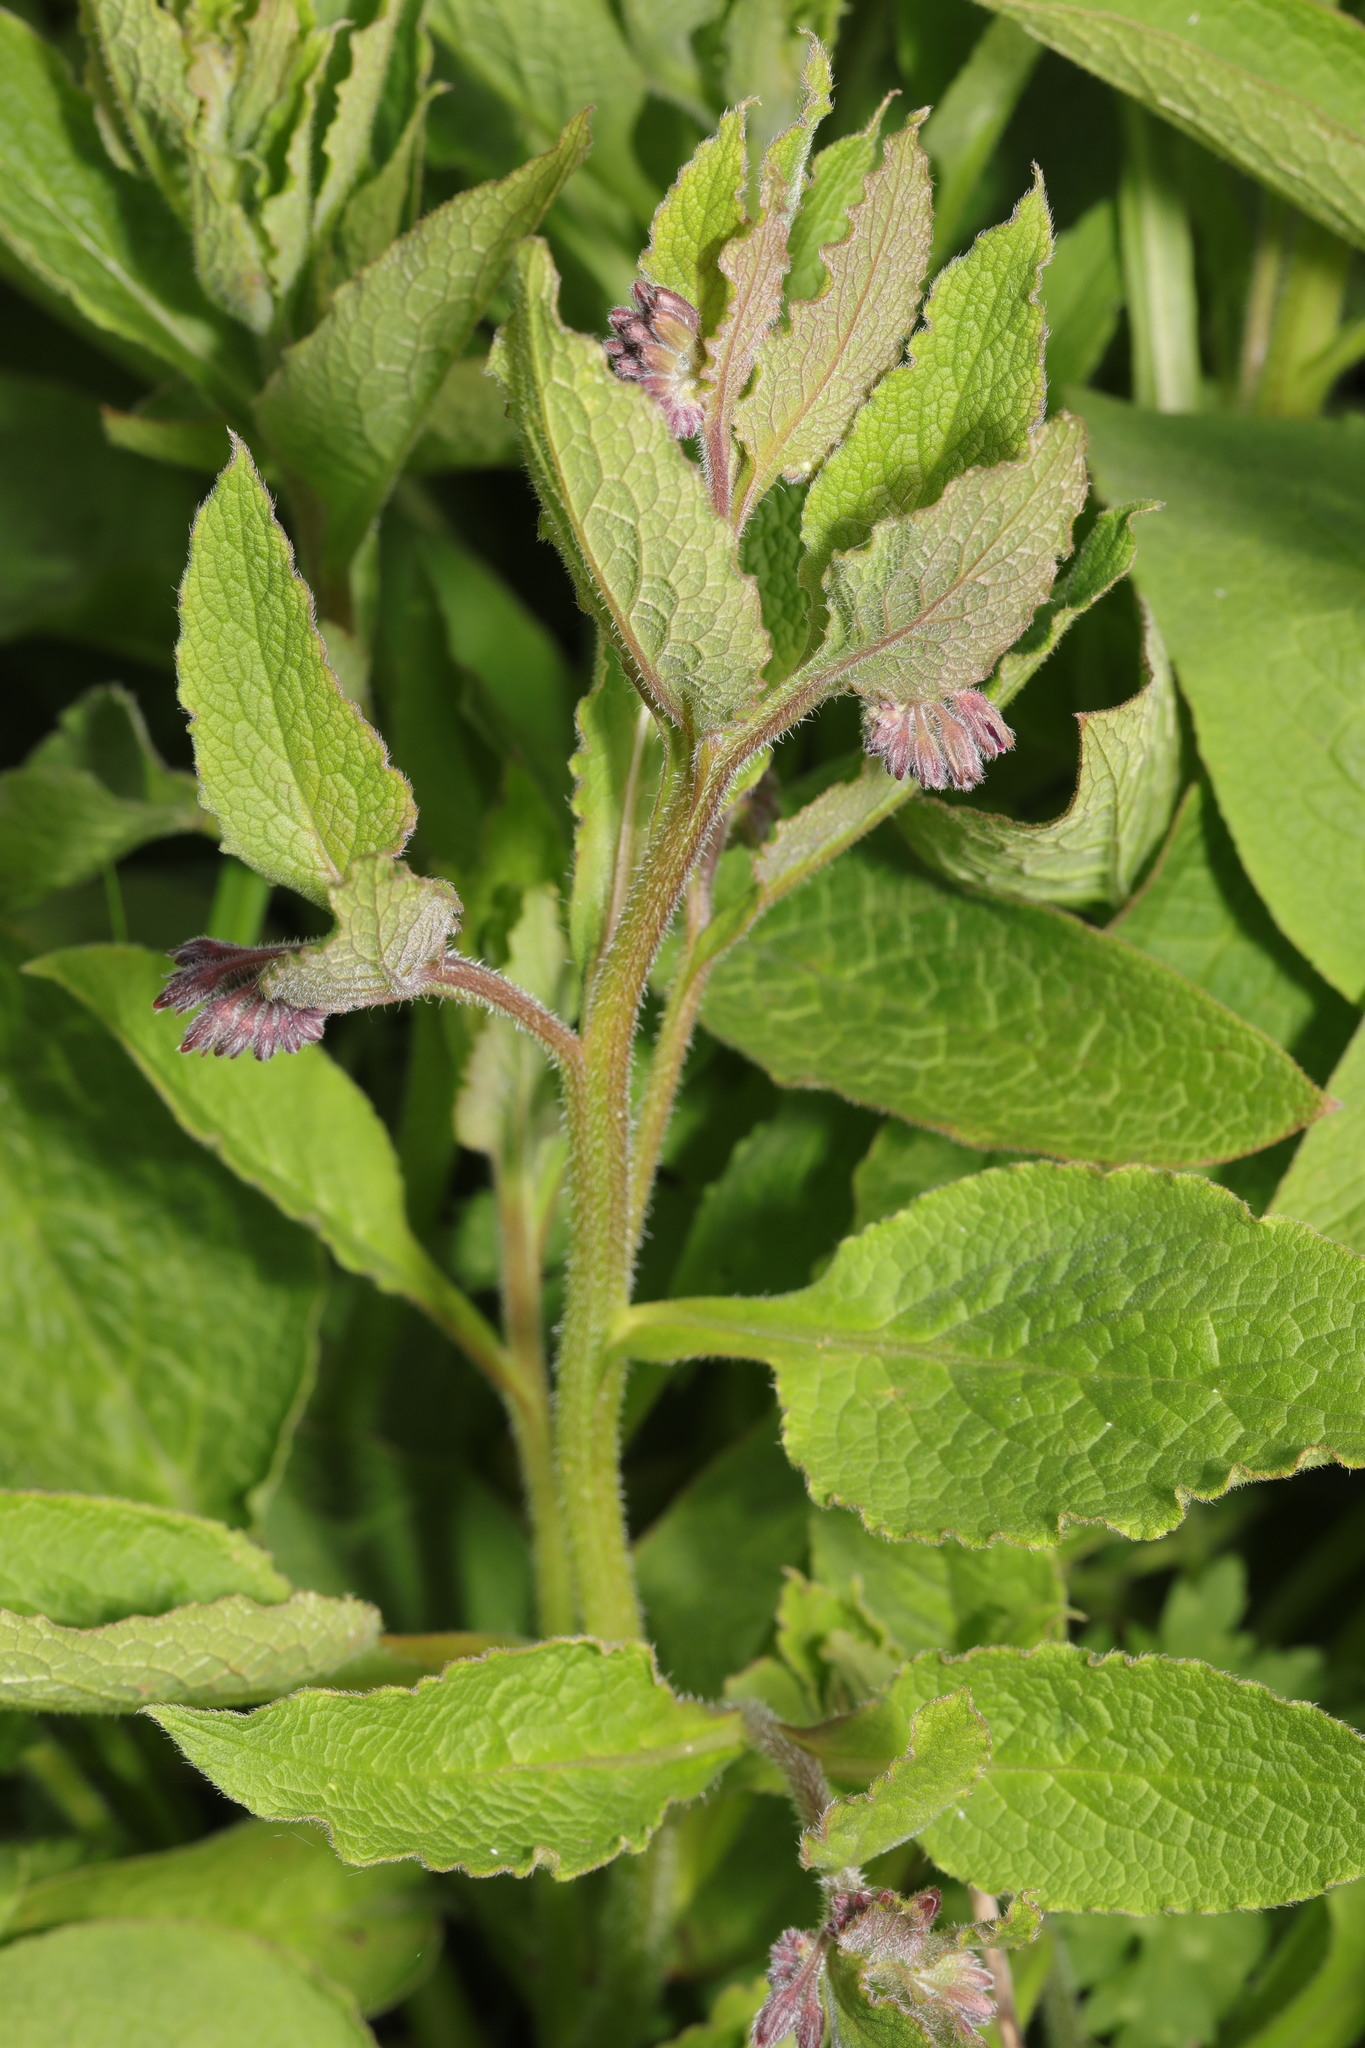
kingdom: Plantae
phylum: Tracheophyta
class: Magnoliopsida
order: Boraginales
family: Boraginaceae
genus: Symphytum
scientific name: Symphytum uplandicum
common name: Russian comfrey
